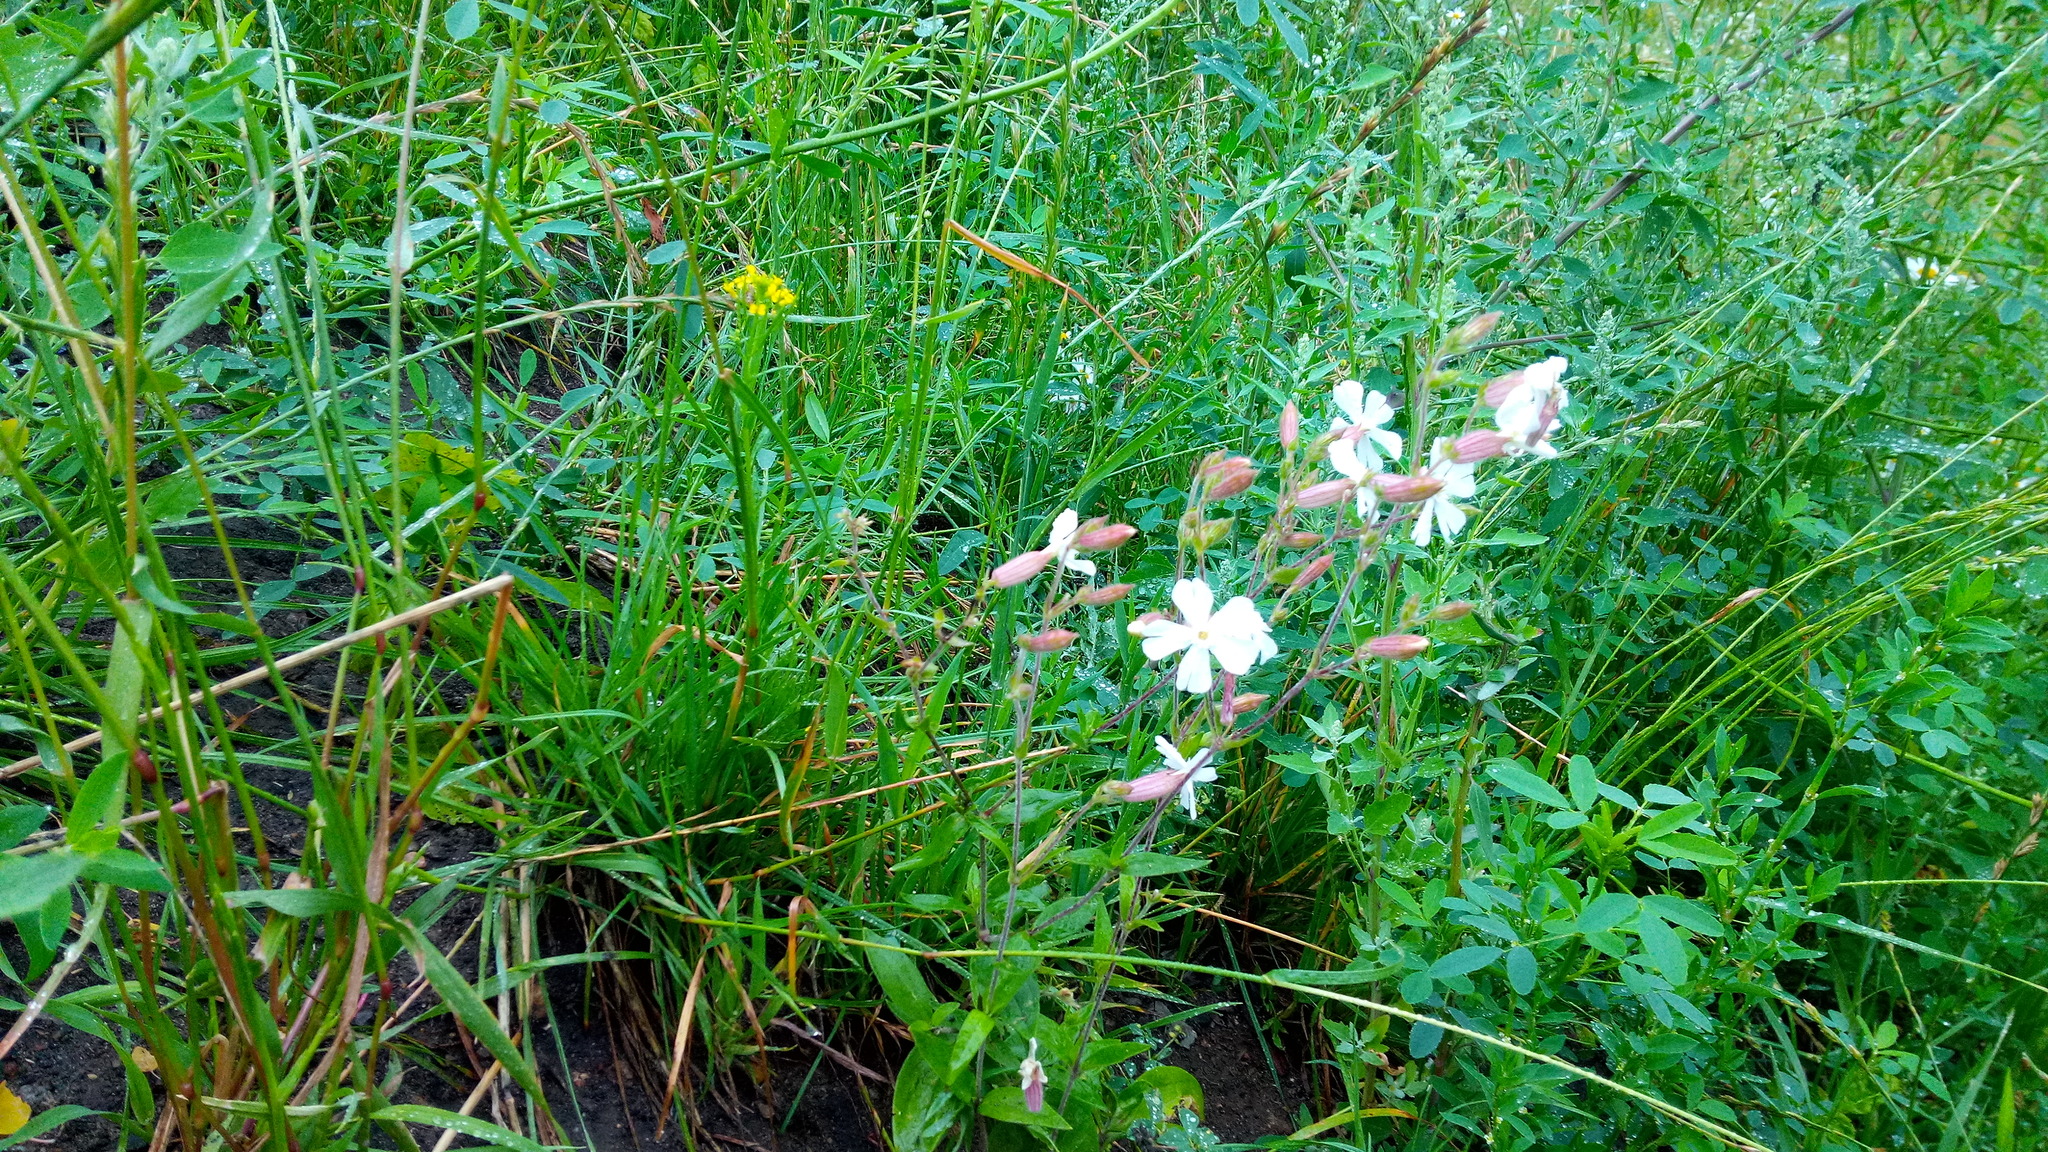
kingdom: Plantae
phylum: Tracheophyta
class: Magnoliopsida
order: Caryophyllales
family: Caryophyllaceae
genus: Silene
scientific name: Silene latifolia
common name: White campion
